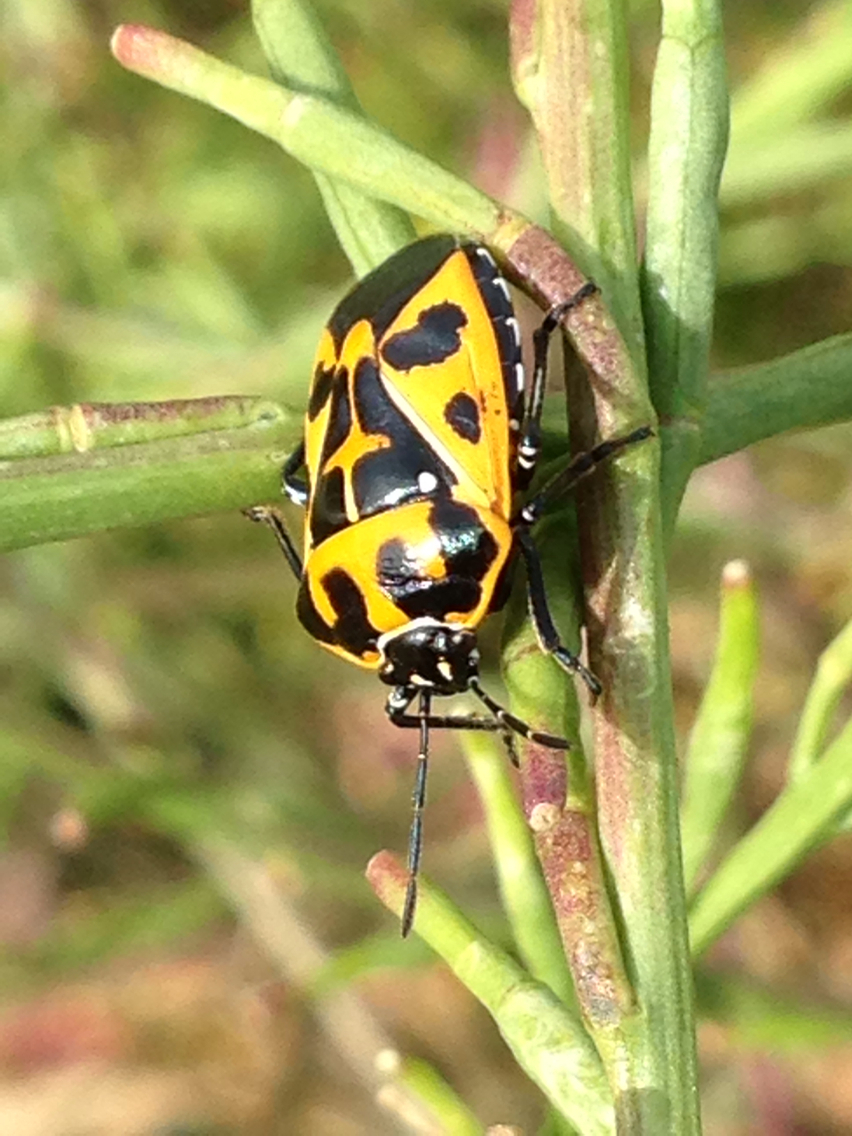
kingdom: Animalia
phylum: Arthropoda
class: Insecta
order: Hemiptera
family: Pentatomidae
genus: Murgantia
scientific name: Murgantia histrionica
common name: Harlequin bug
